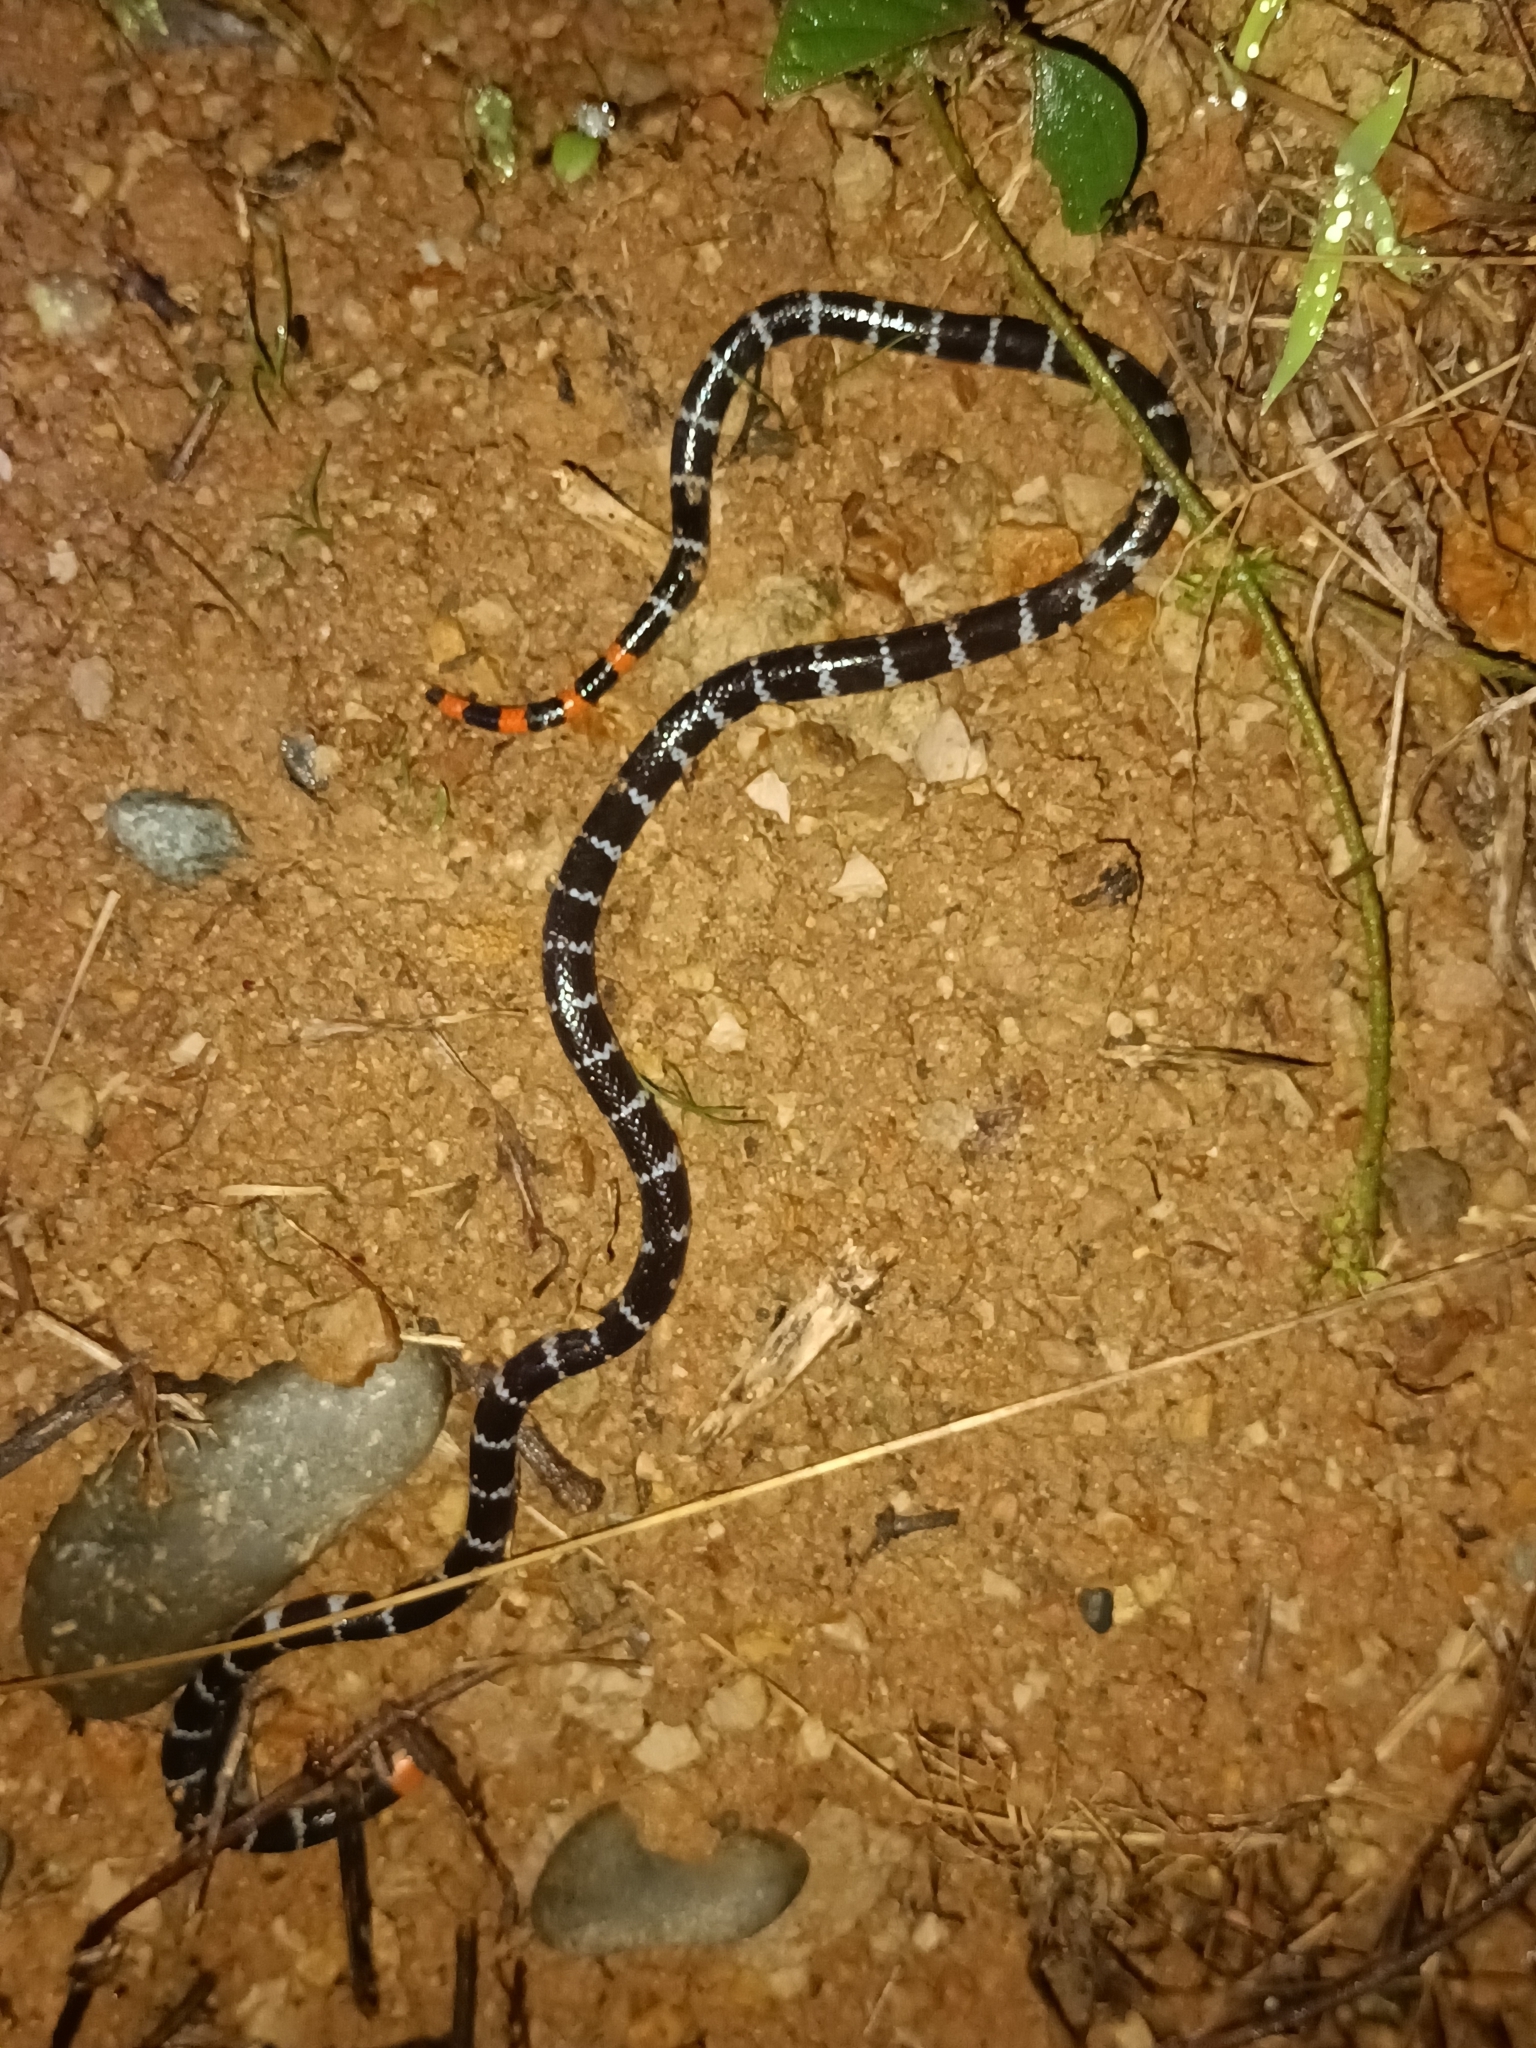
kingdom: Animalia
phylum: Chordata
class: Squamata
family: Elapidae
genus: Micrurus
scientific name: Micrurus mipartitus
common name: Redtail coral snake
